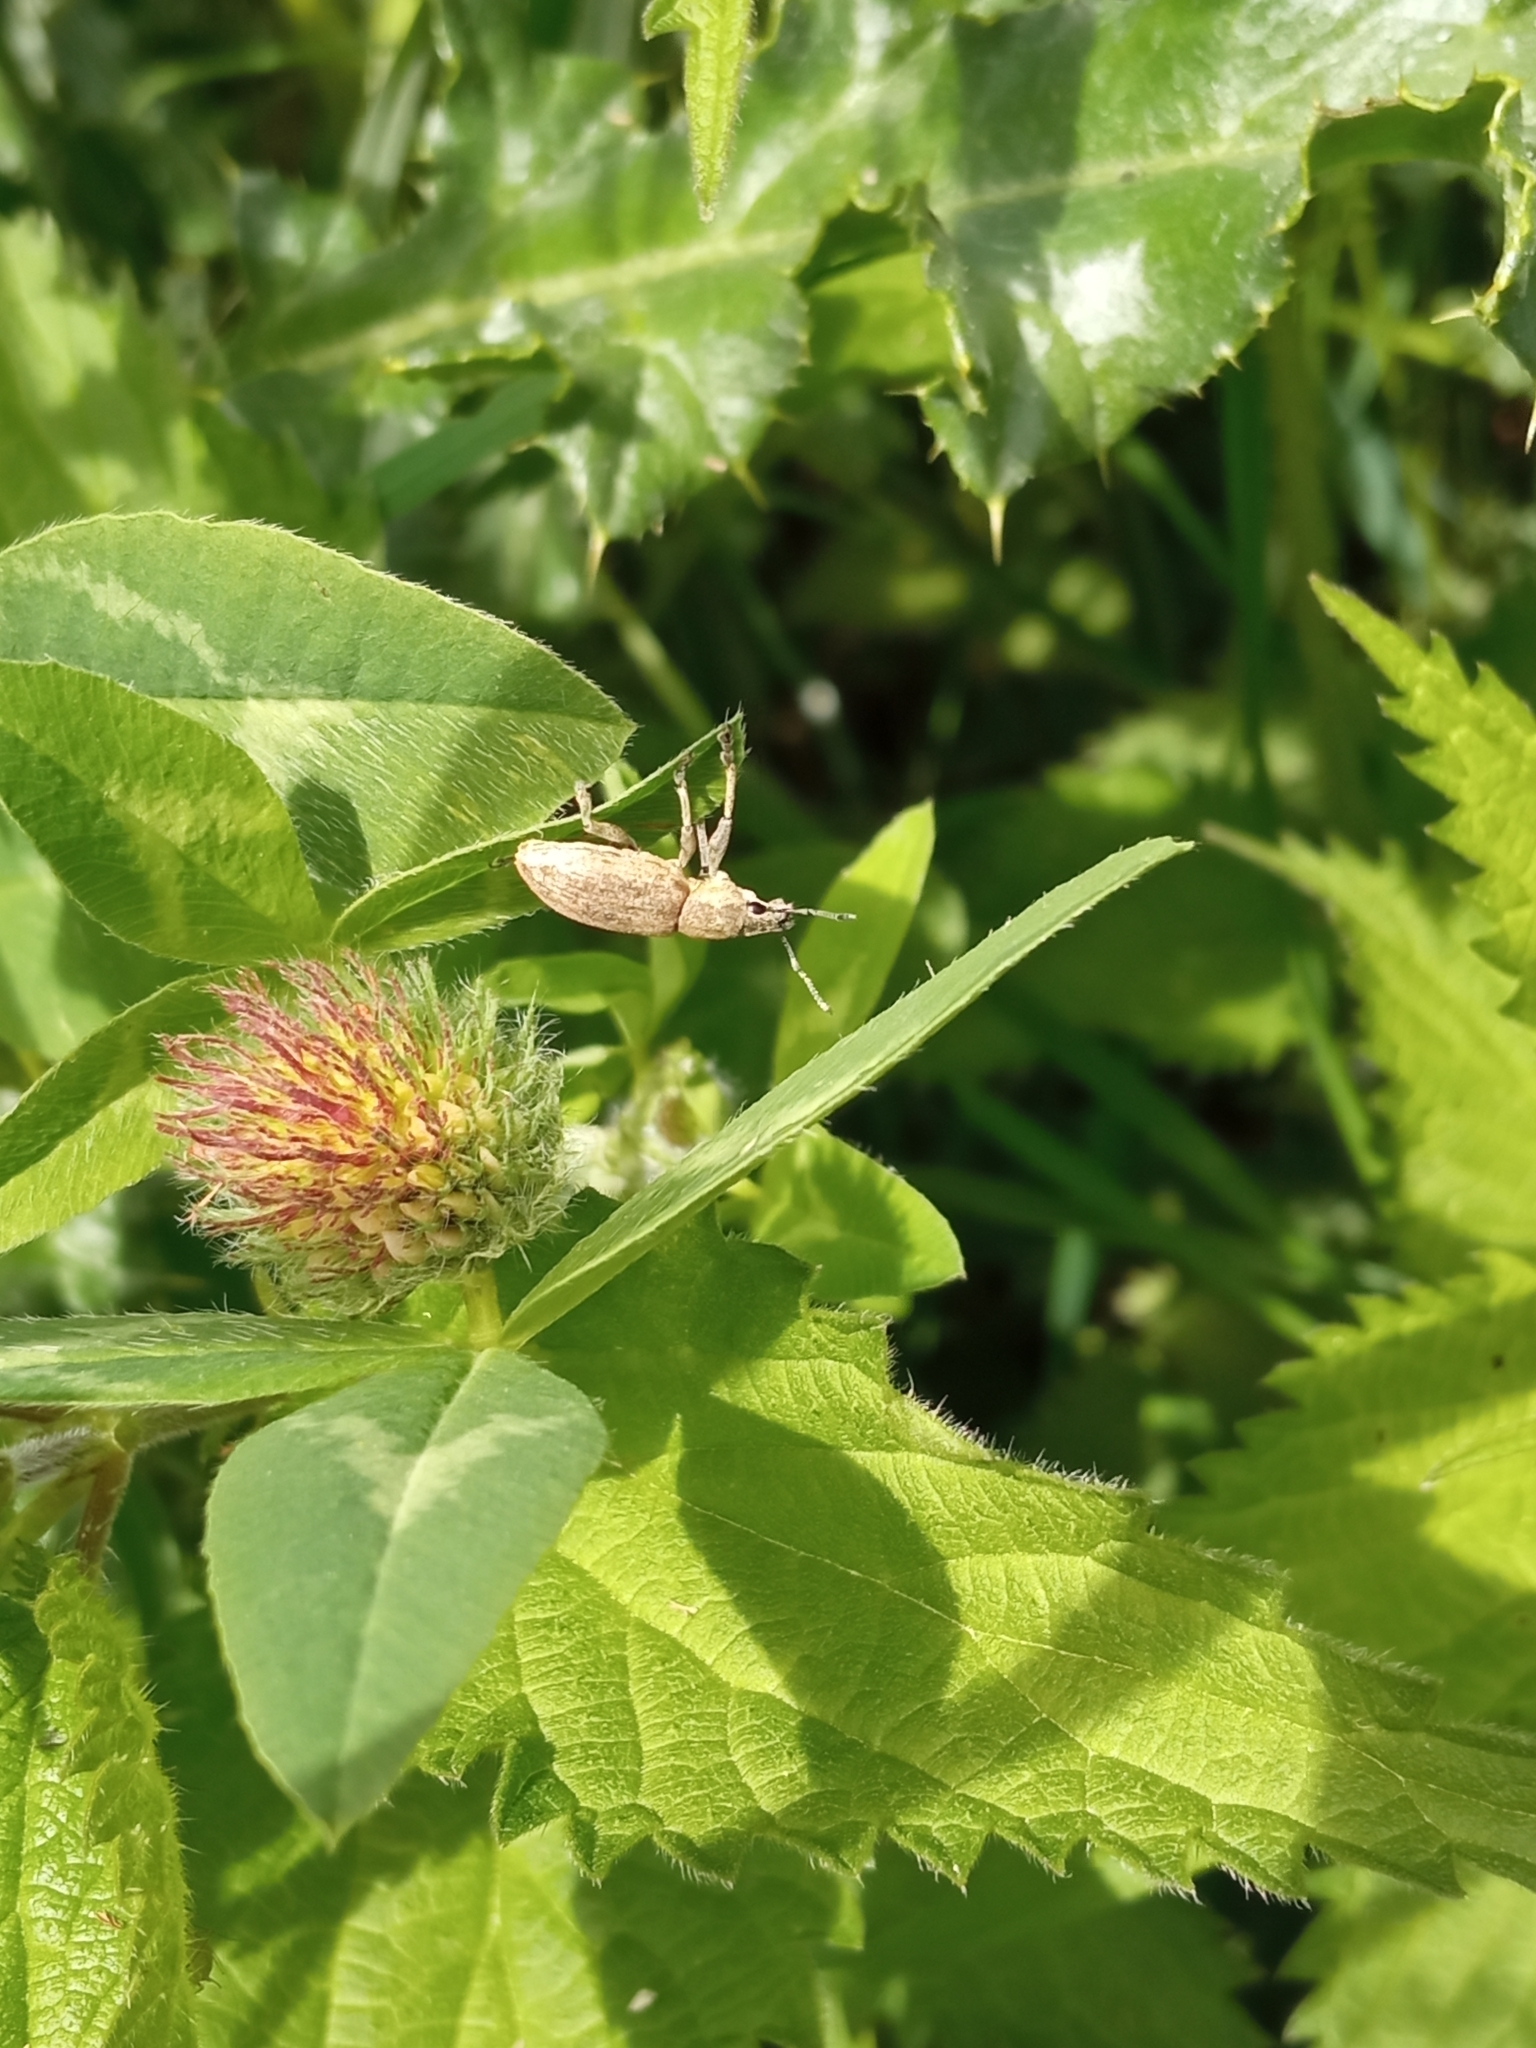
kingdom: Animalia
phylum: Arthropoda
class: Insecta
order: Coleoptera
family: Curculionidae
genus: Tanymecus
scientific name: Tanymecus palliatus
